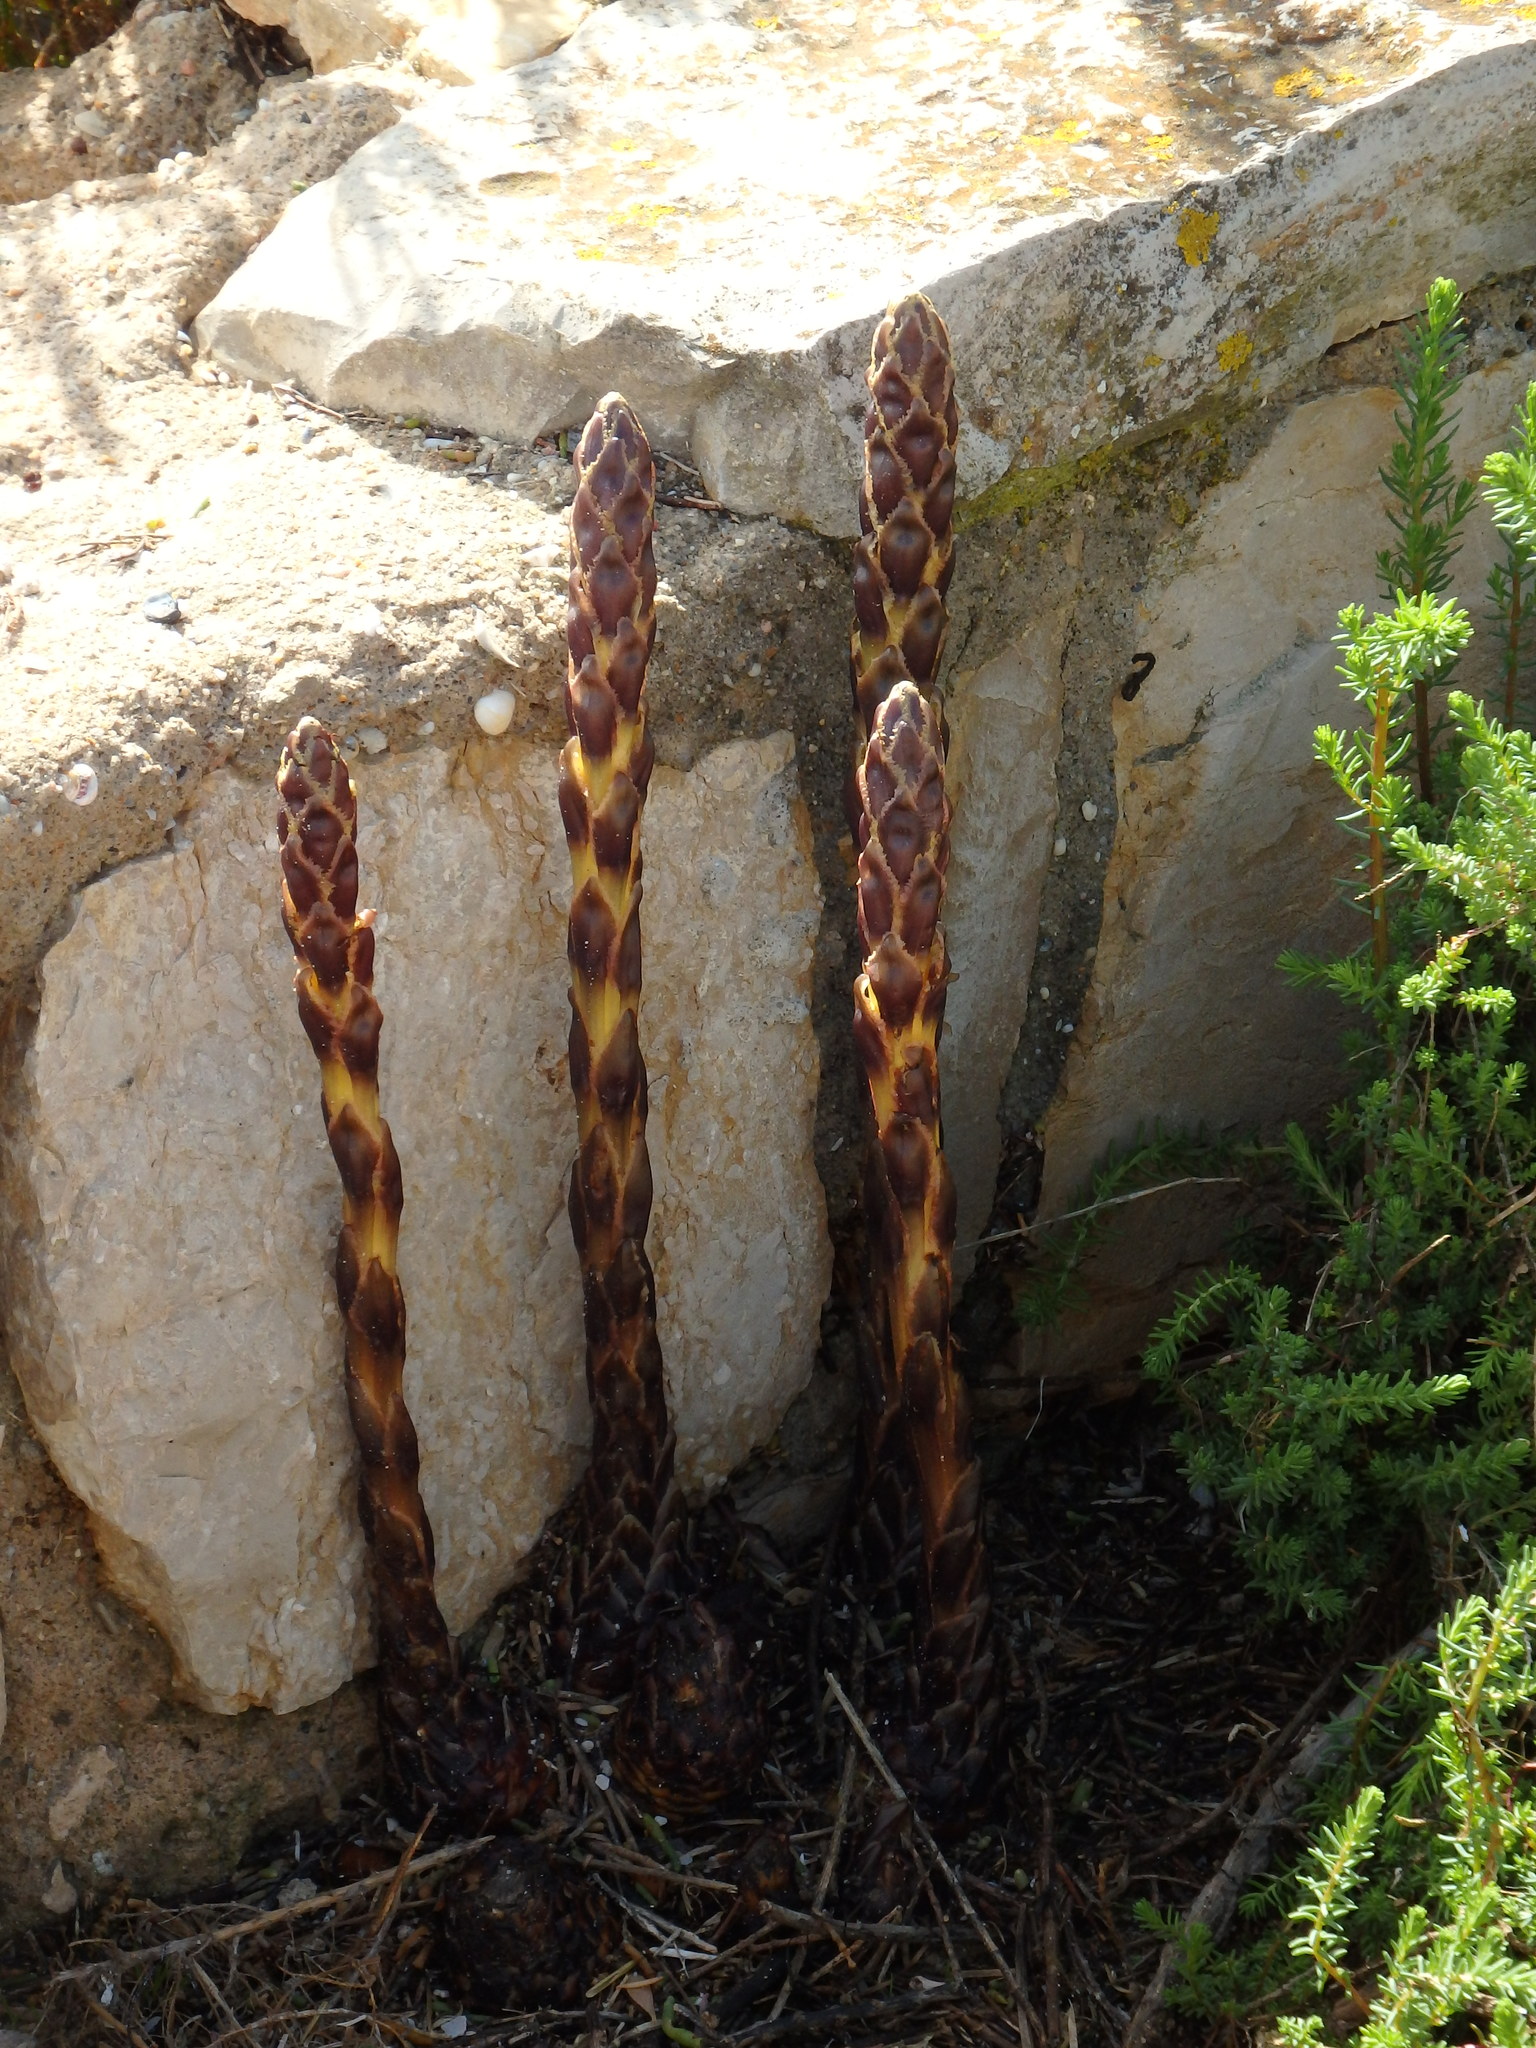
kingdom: Plantae
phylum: Tracheophyta
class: Magnoliopsida
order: Lamiales
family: Orobanchaceae
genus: Cistanche
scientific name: Cistanche phelypaea
